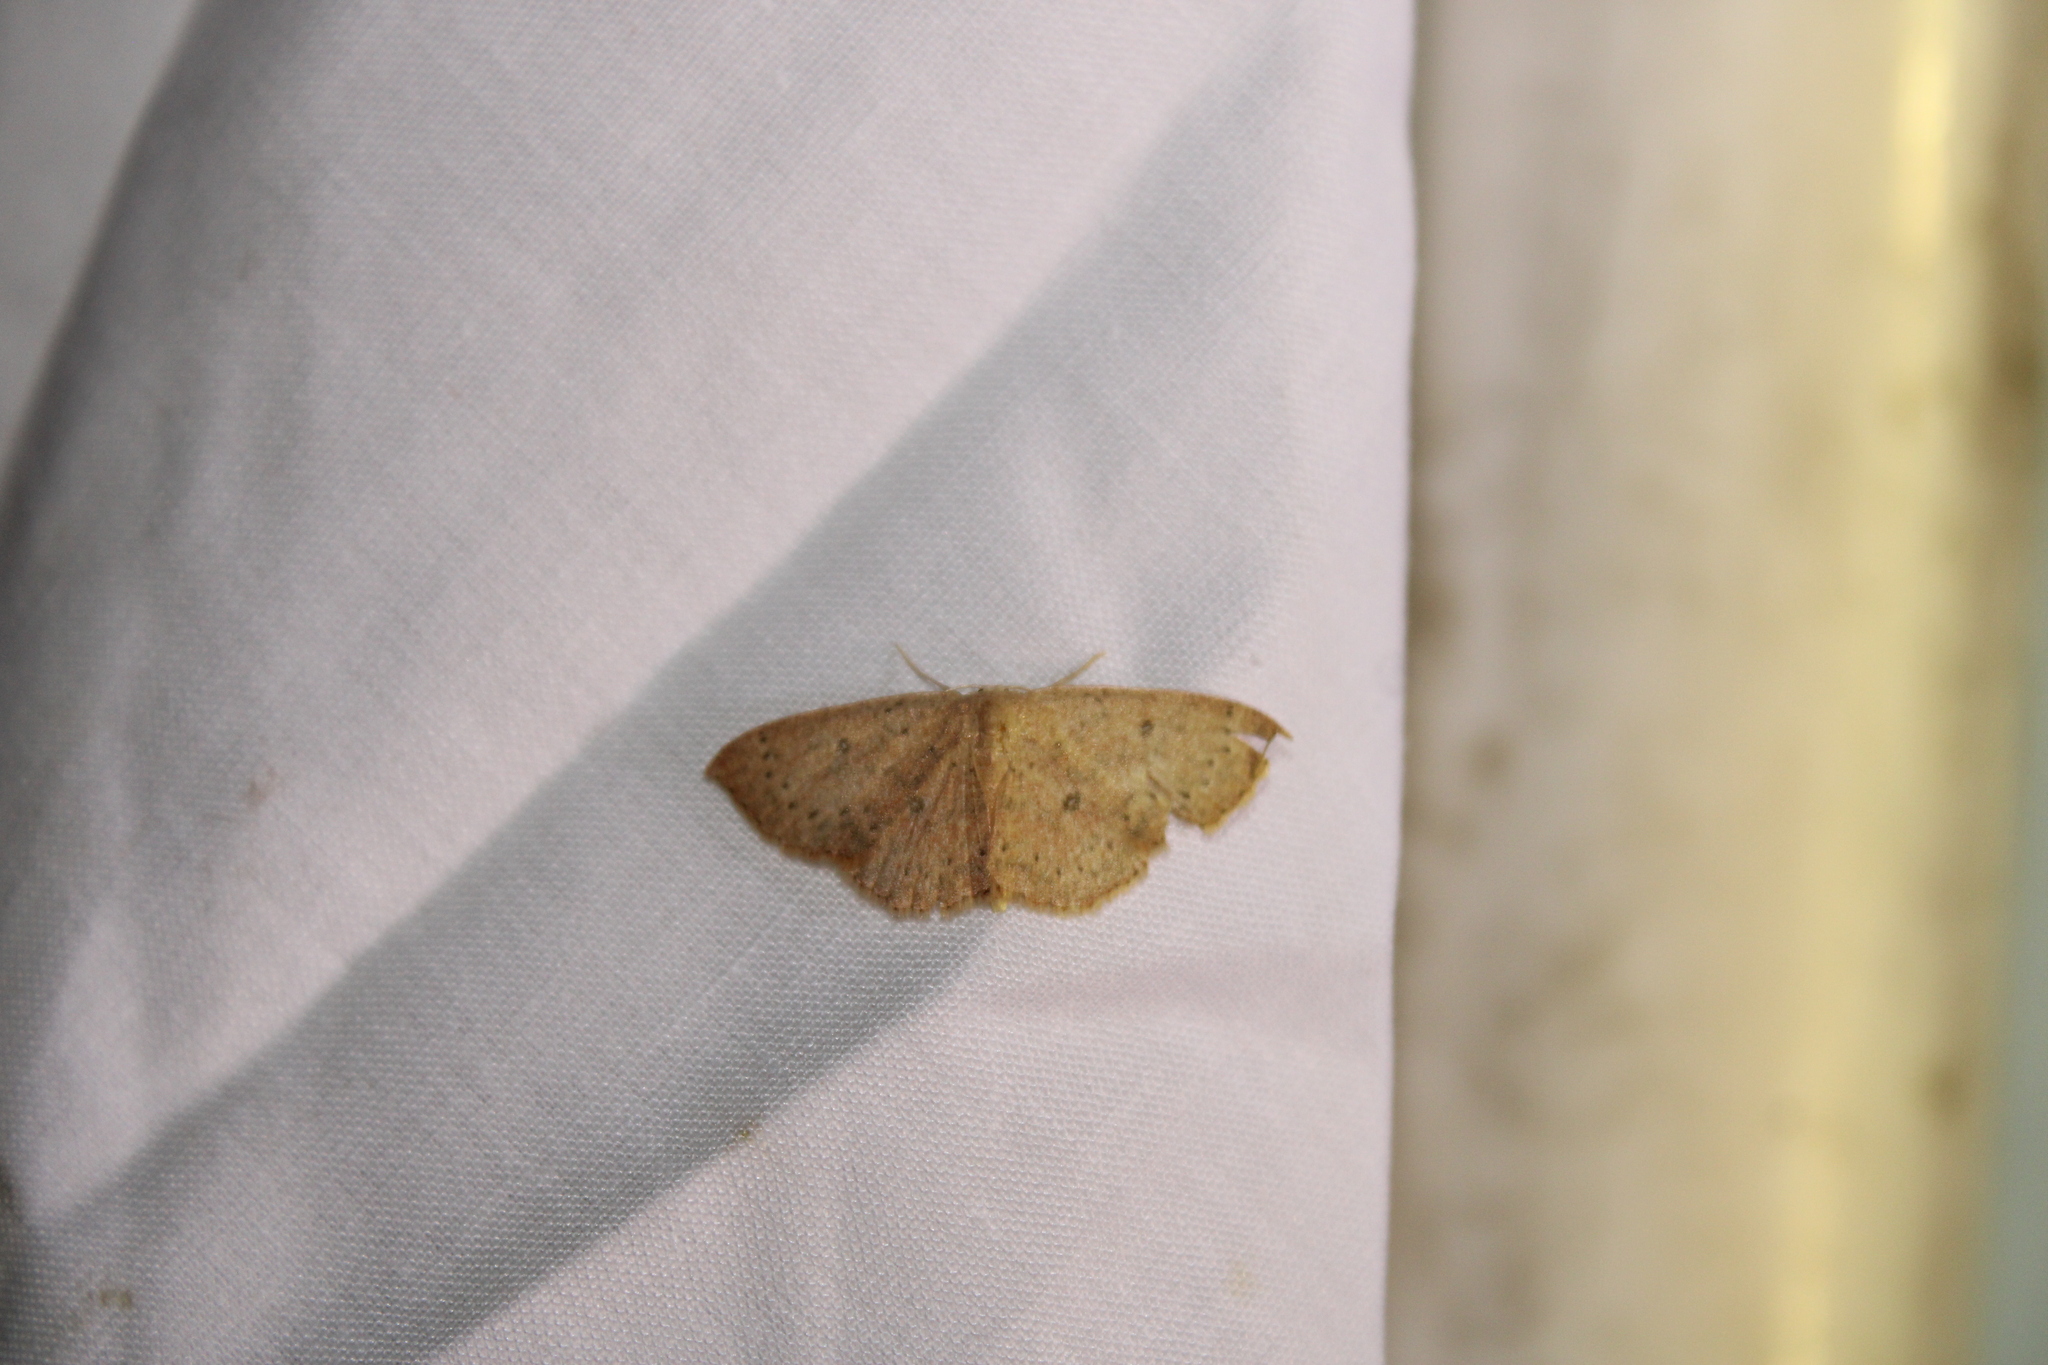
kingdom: Animalia
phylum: Arthropoda
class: Insecta
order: Lepidoptera
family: Geometridae
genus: Cyclophora
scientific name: Cyclophora packardi
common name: Packard's wave
